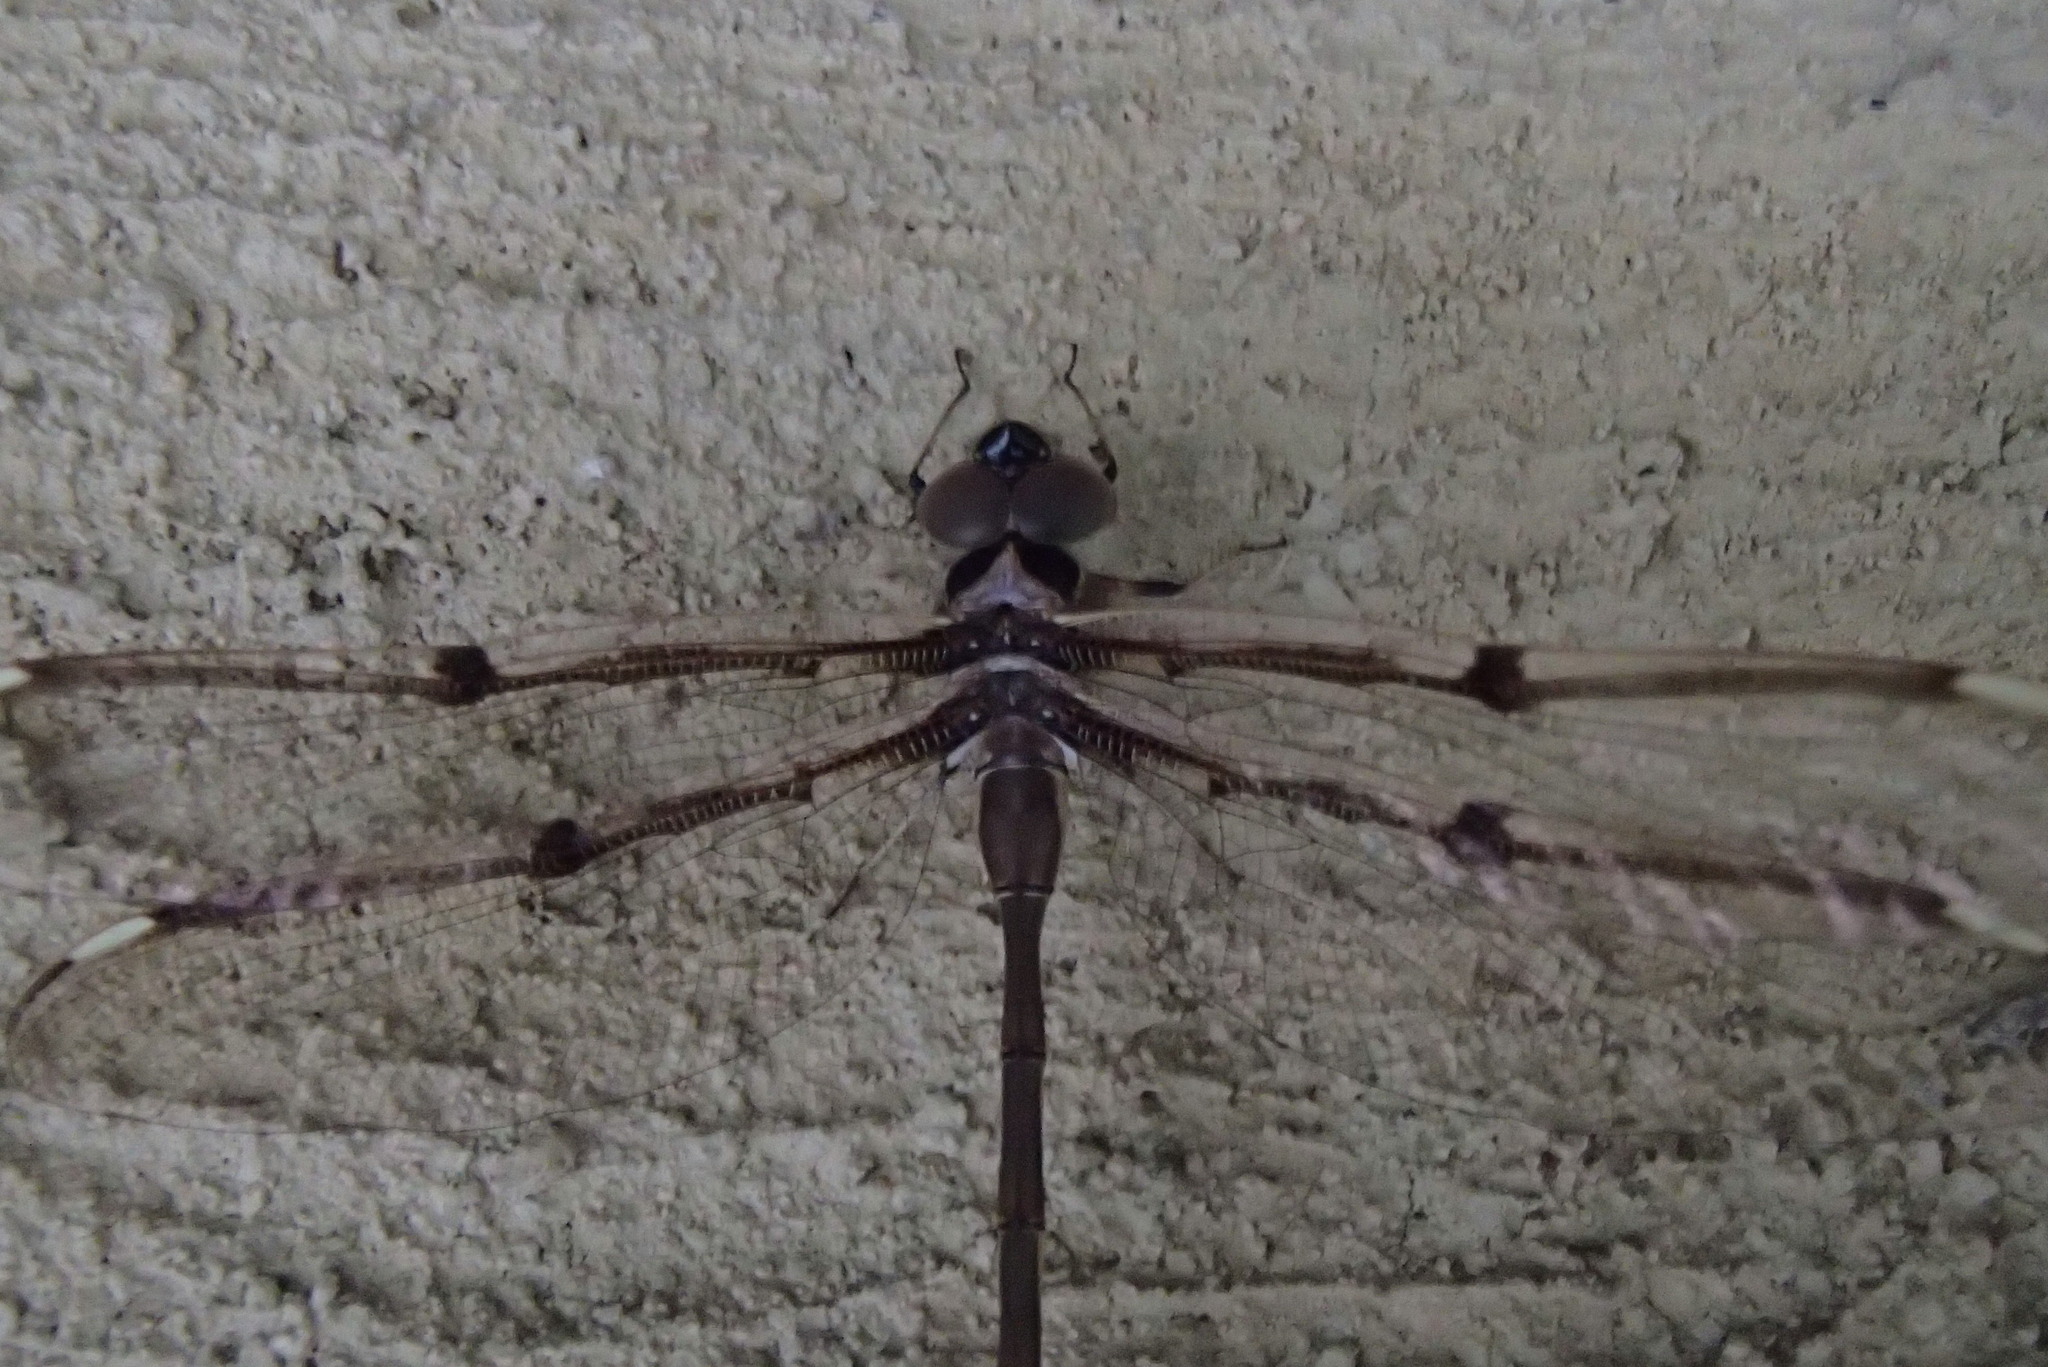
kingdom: Animalia
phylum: Arthropoda
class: Insecta
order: Odonata
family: Aeshnidae
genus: Telephlebia
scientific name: Telephlebia godeffroyi
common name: Eastern evening darner
